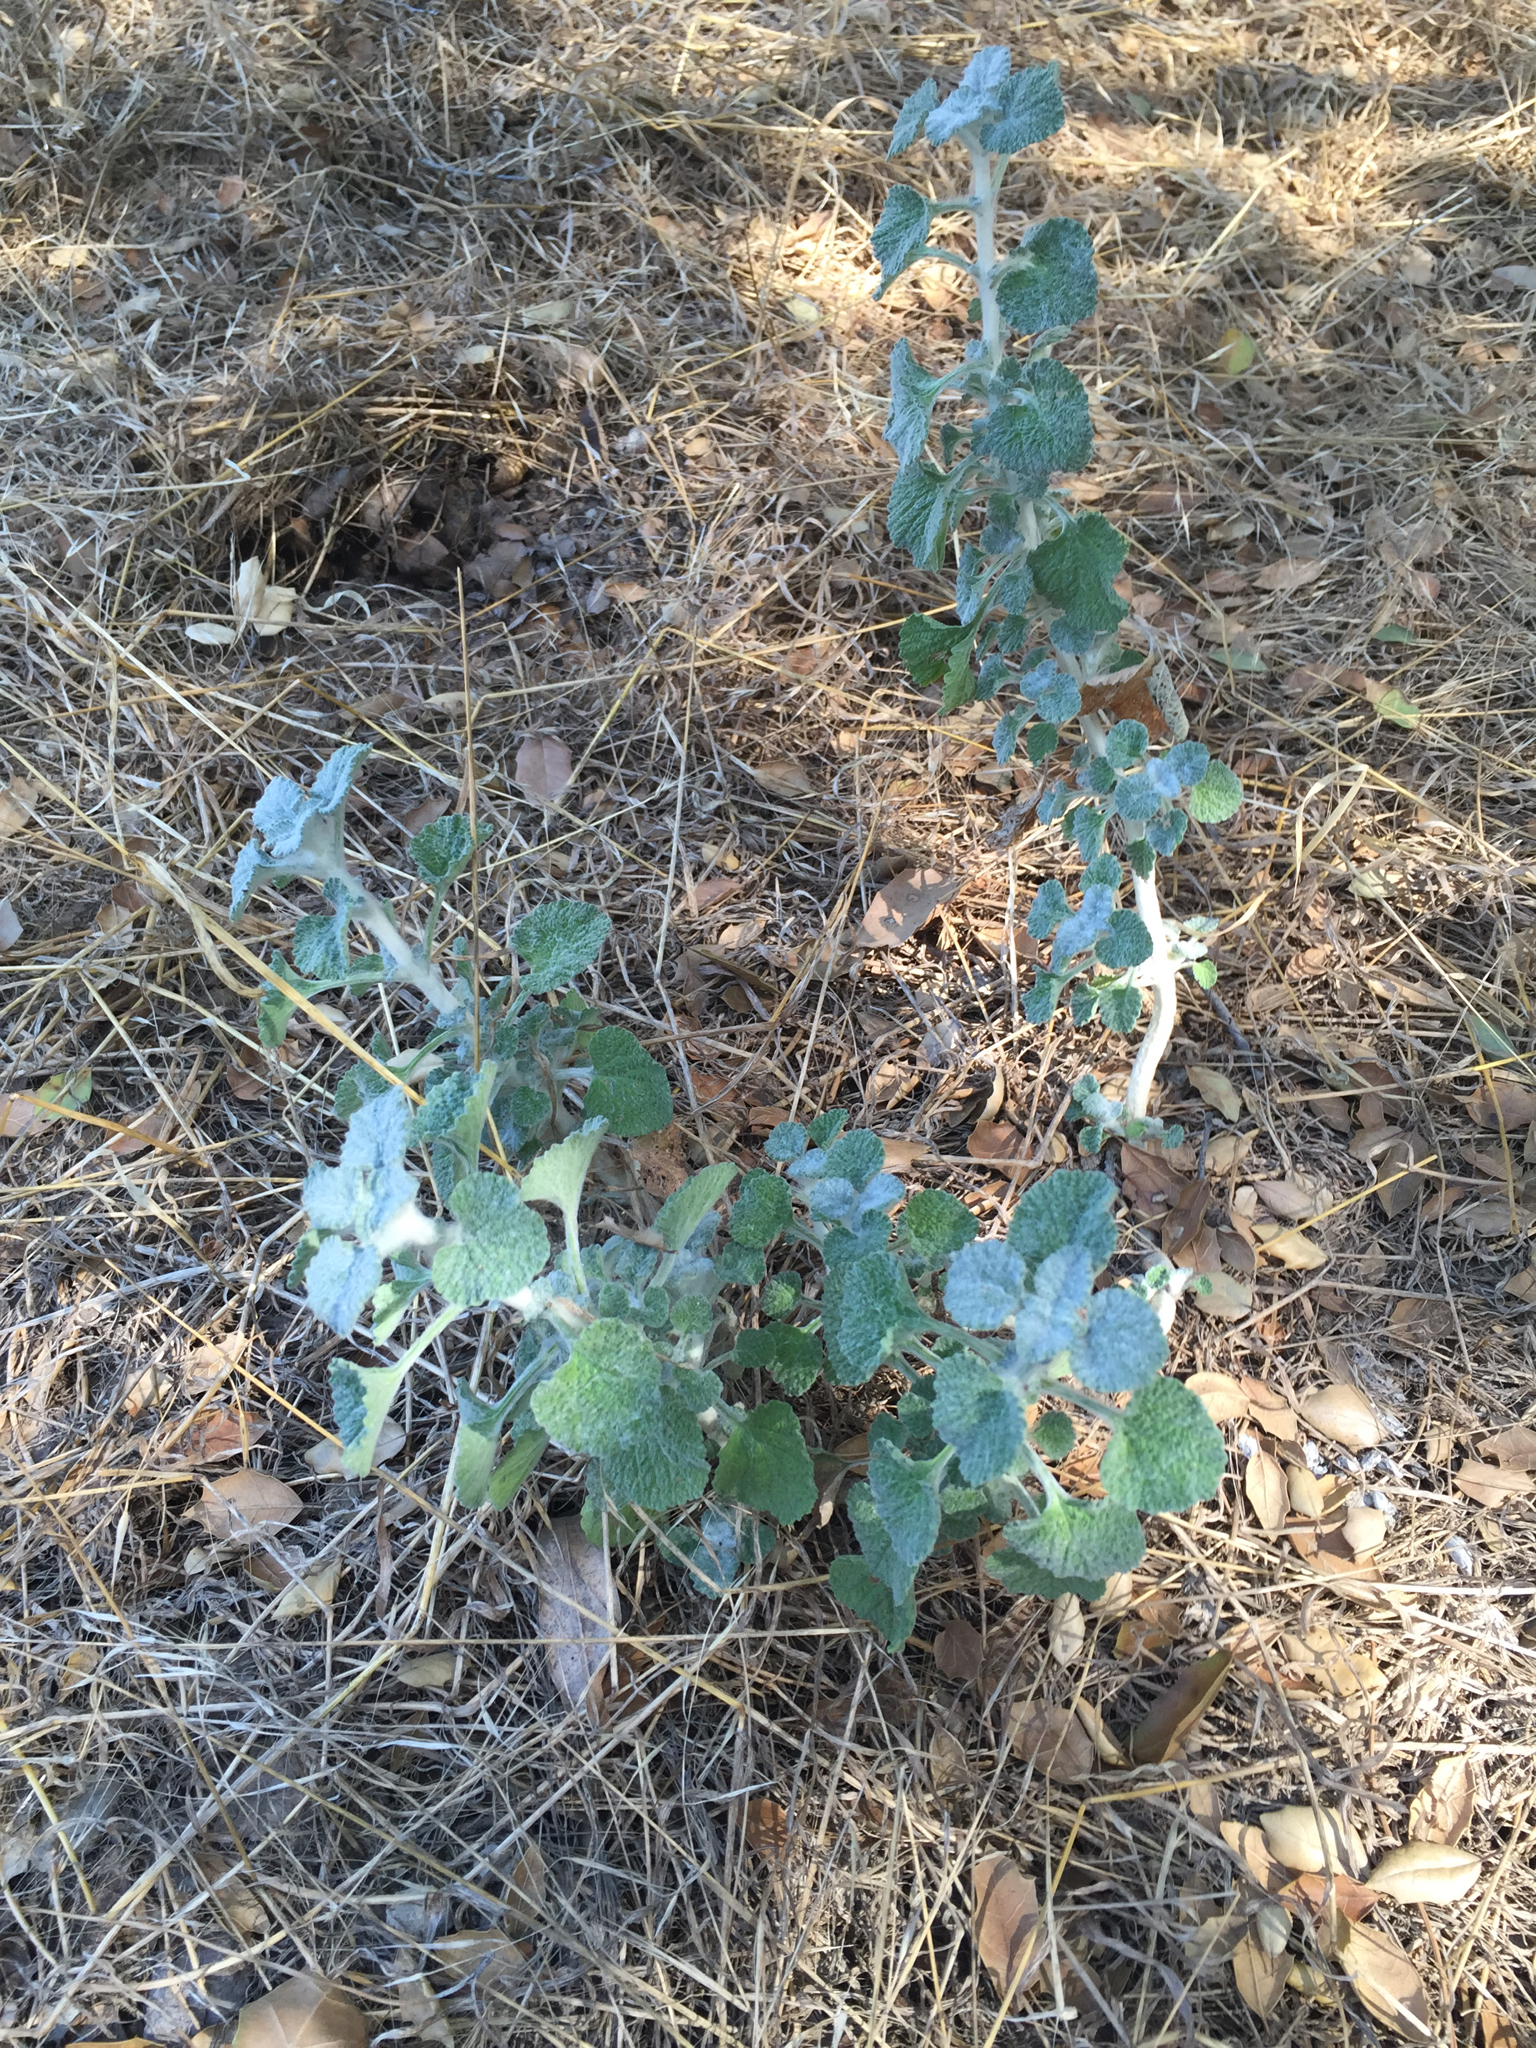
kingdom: Plantae
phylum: Tracheophyta
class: Magnoliopsida
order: Lamiales
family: Lamiaceae
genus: Marrubium
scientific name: Marrubium vulgare
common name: Horehound
